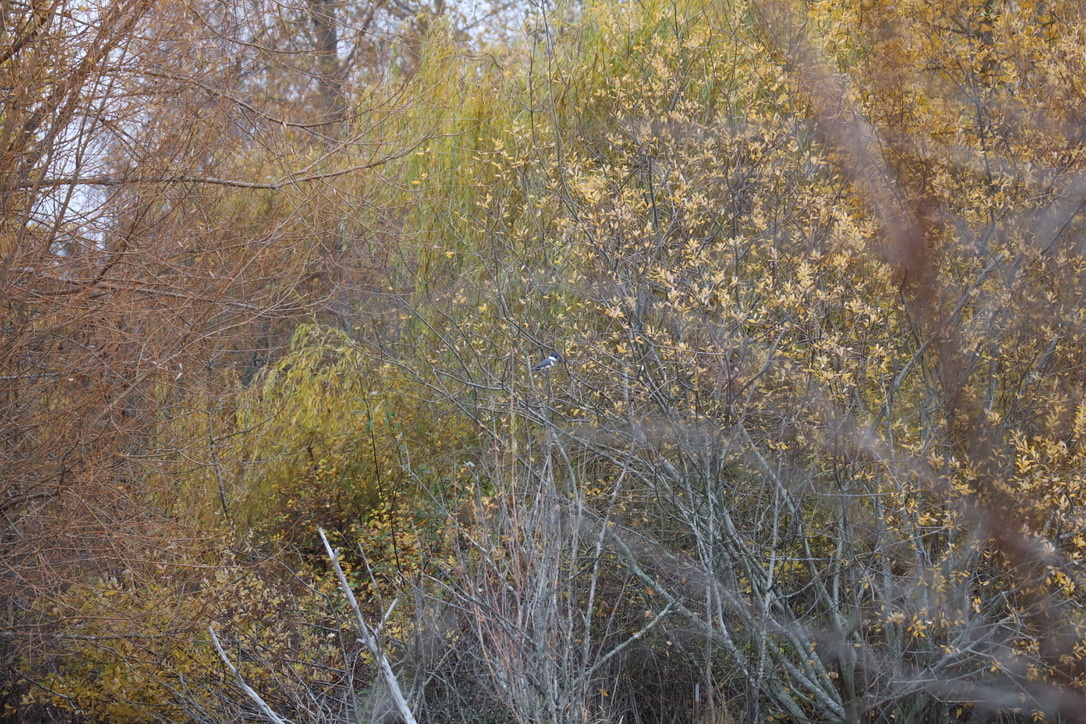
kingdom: Animalia
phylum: Chordata
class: Aves
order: Coraciiformes
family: Alcedinidae
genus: Megaceryle
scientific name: Megaceryle alcyon
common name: Belted kingfisher
